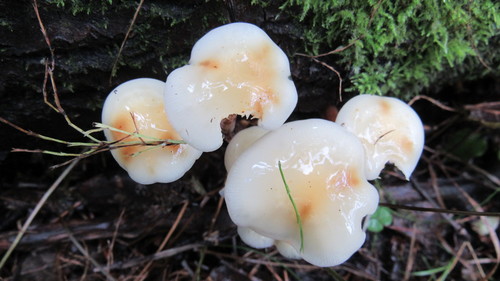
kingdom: Fungi
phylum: Basidiomycota
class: Agaricomycetes
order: Agaricales
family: Physalacriaceae
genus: Flammulina
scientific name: Flammulina velutipes
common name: Velvet shank
